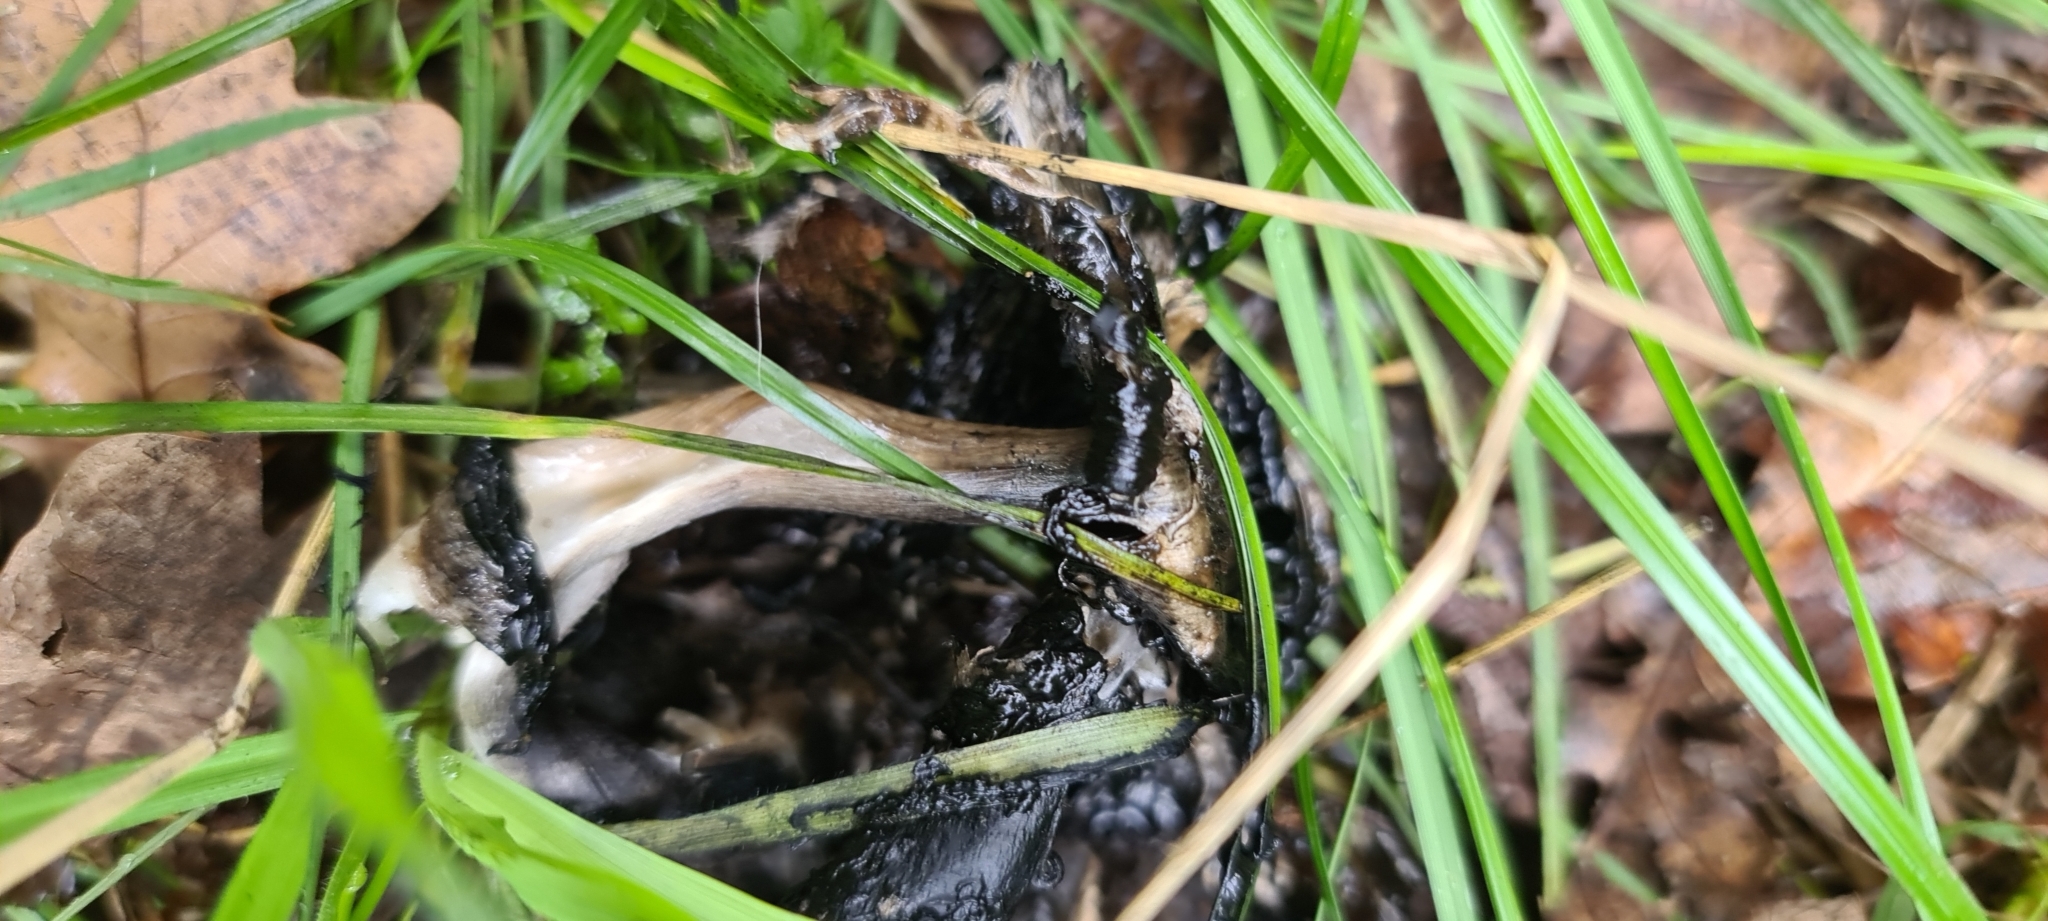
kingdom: Fungi
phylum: Basidiomycota
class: Agaricomycetes
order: Agaricales
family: Agaricaceae
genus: Coprinus
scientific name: Coprinus comatus
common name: Lawyer's wig
